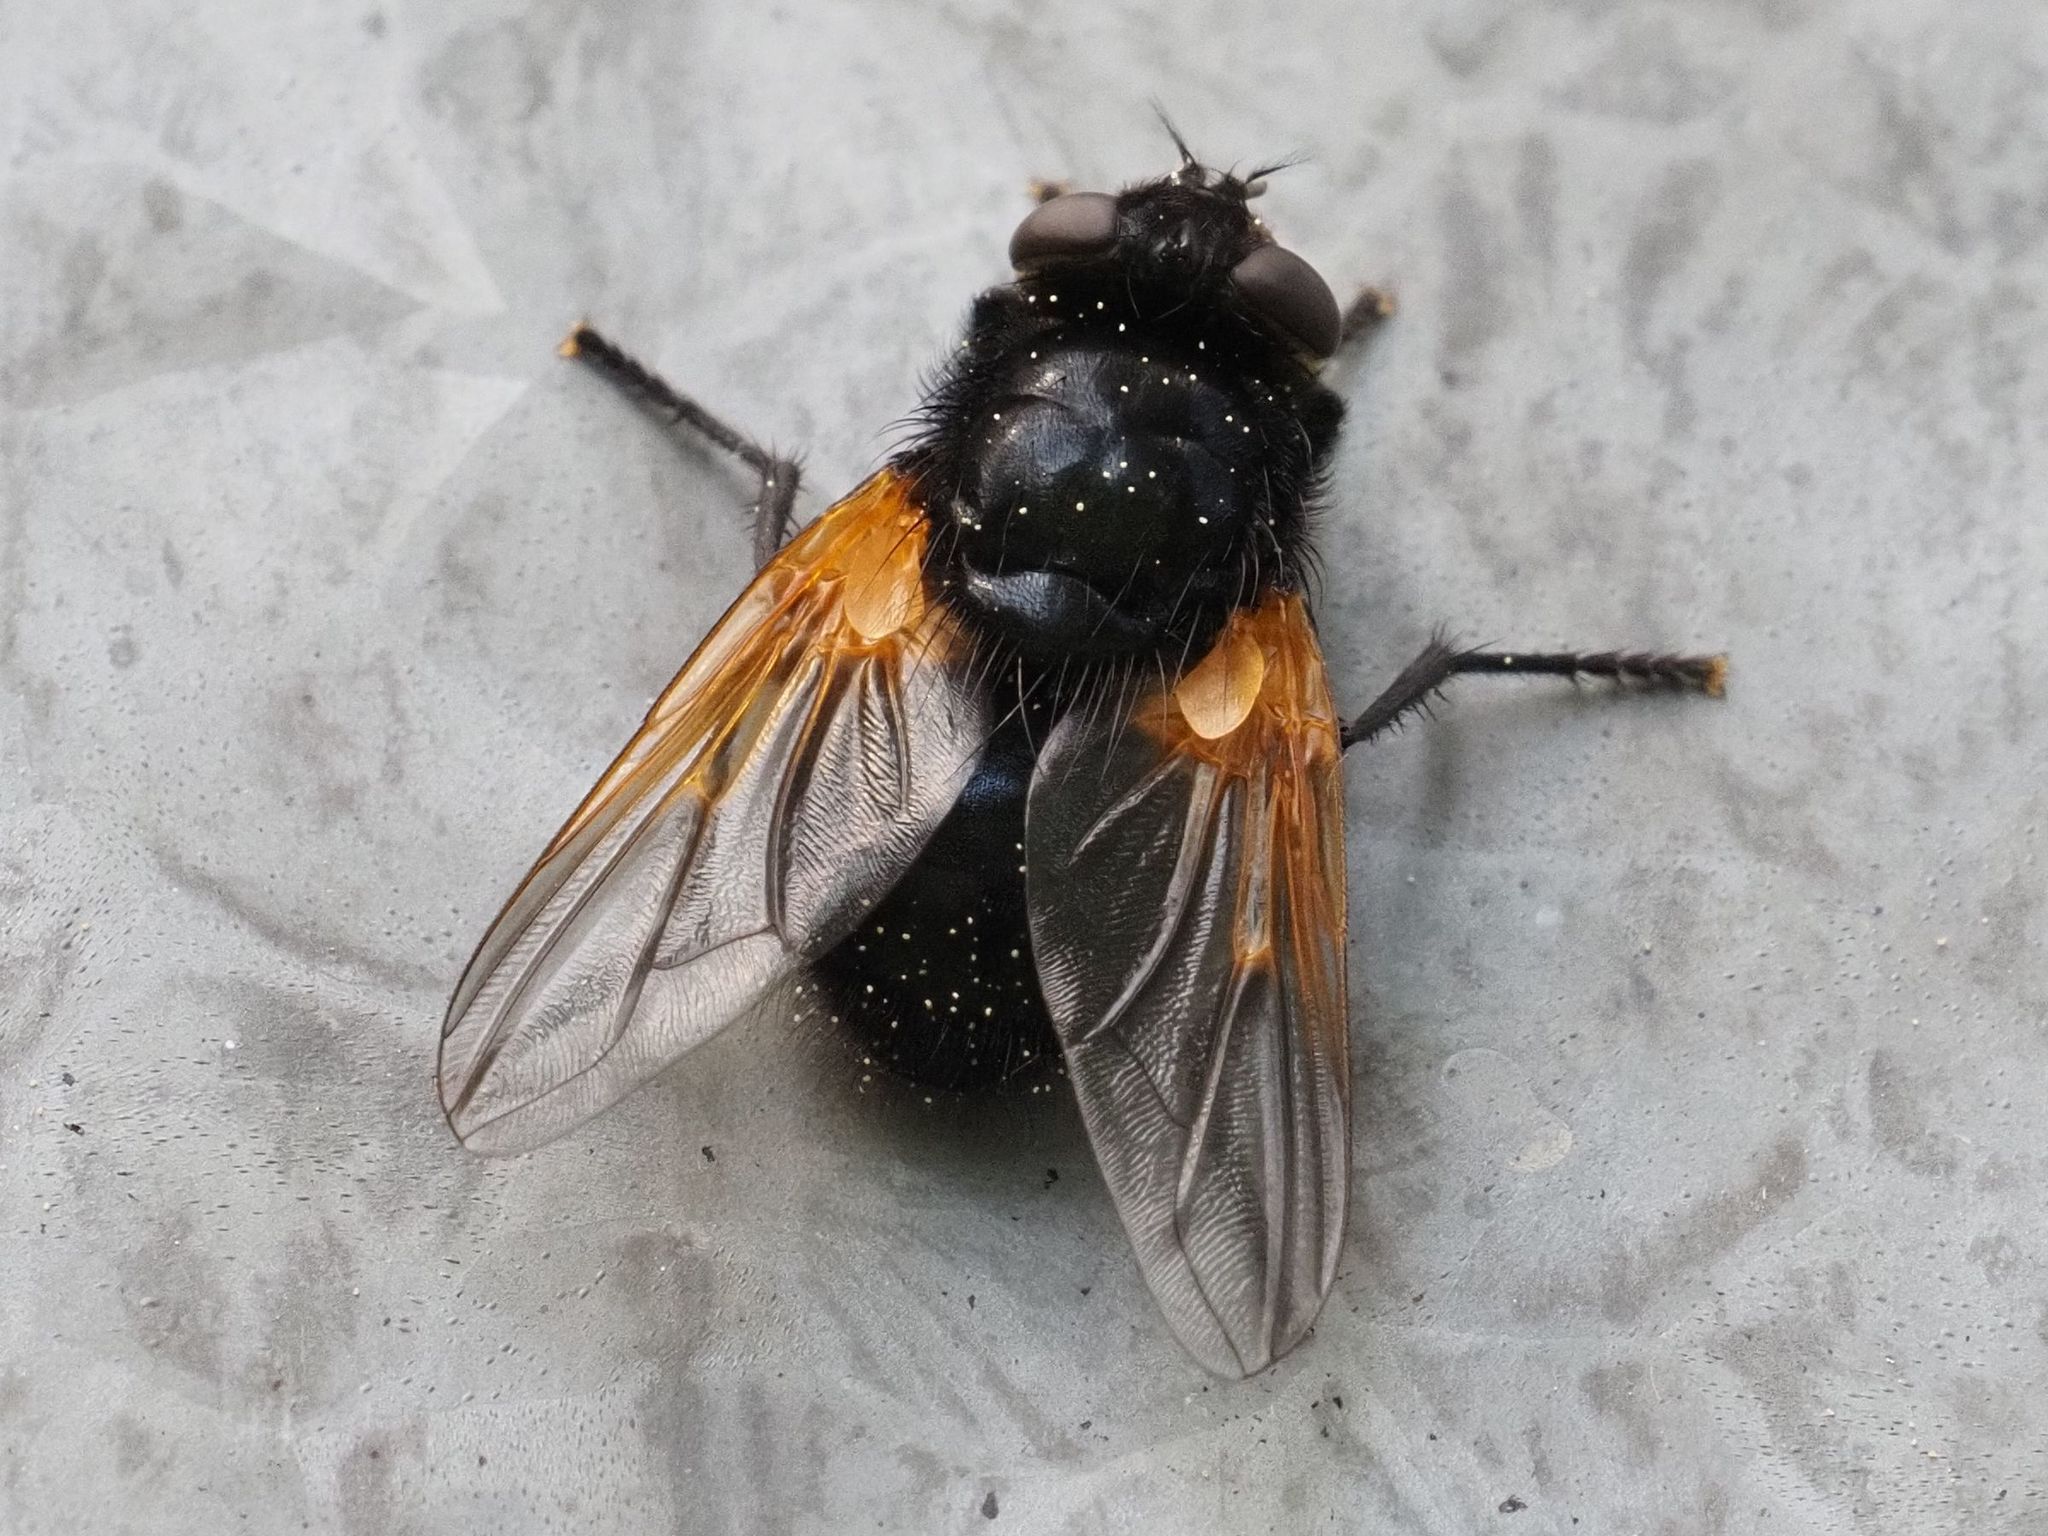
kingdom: Animalia
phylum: Arthropoda
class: Insecta
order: Diptera
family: Muscidae
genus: Mesembrina
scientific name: Mesembrina meridiana
